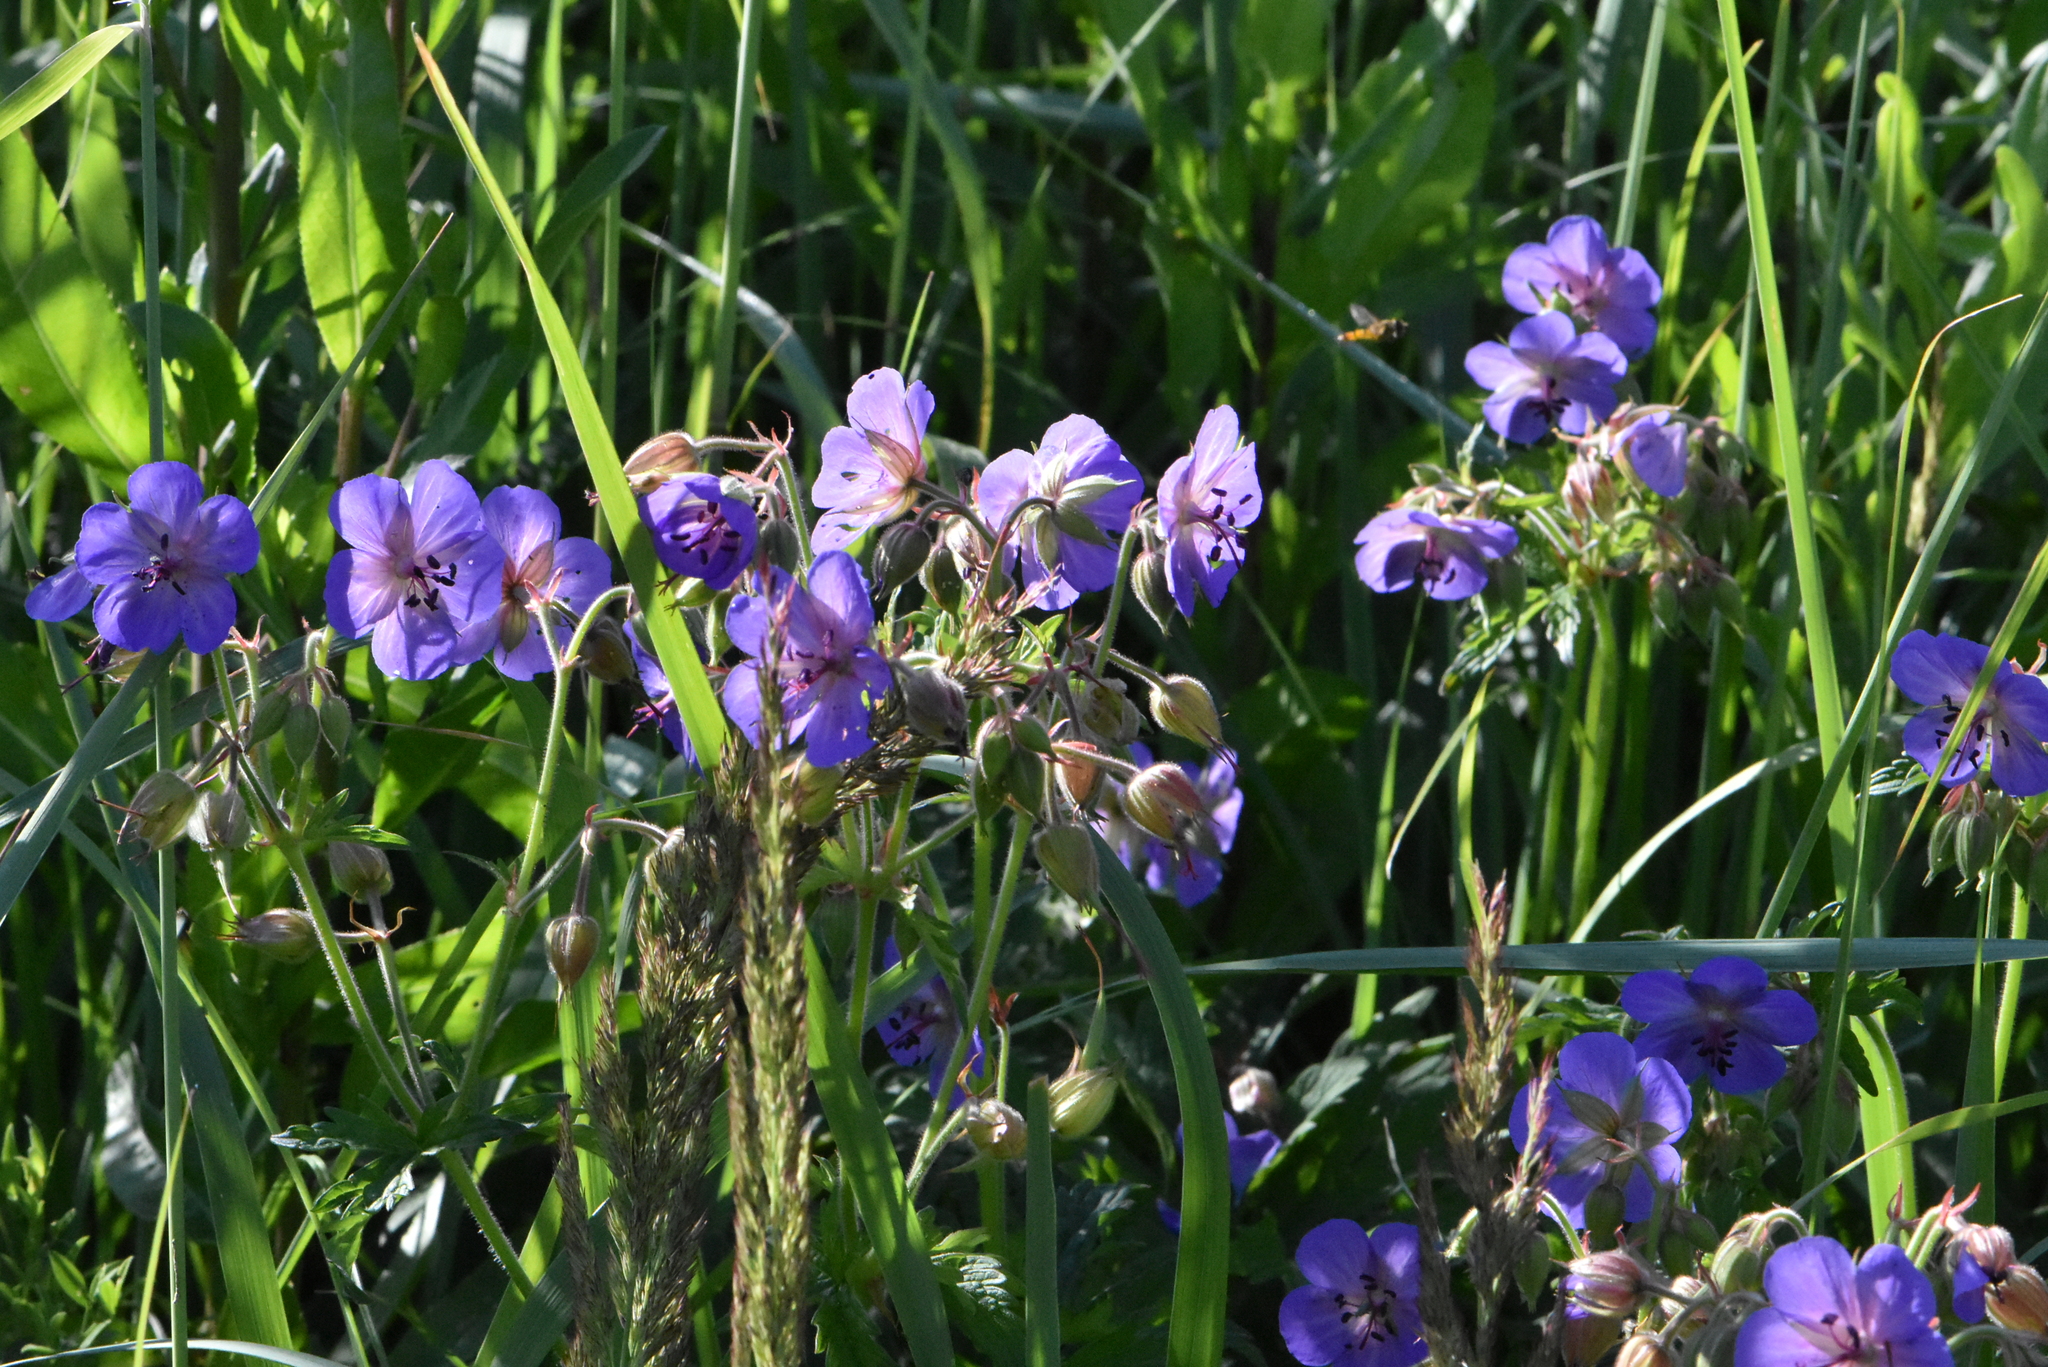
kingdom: Plantae
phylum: Tracheophyta
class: Magnoliopsida
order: Geraniales
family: Geraniaceae
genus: Geranium
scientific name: Geranium pratense
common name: Meadow crane's-bill
